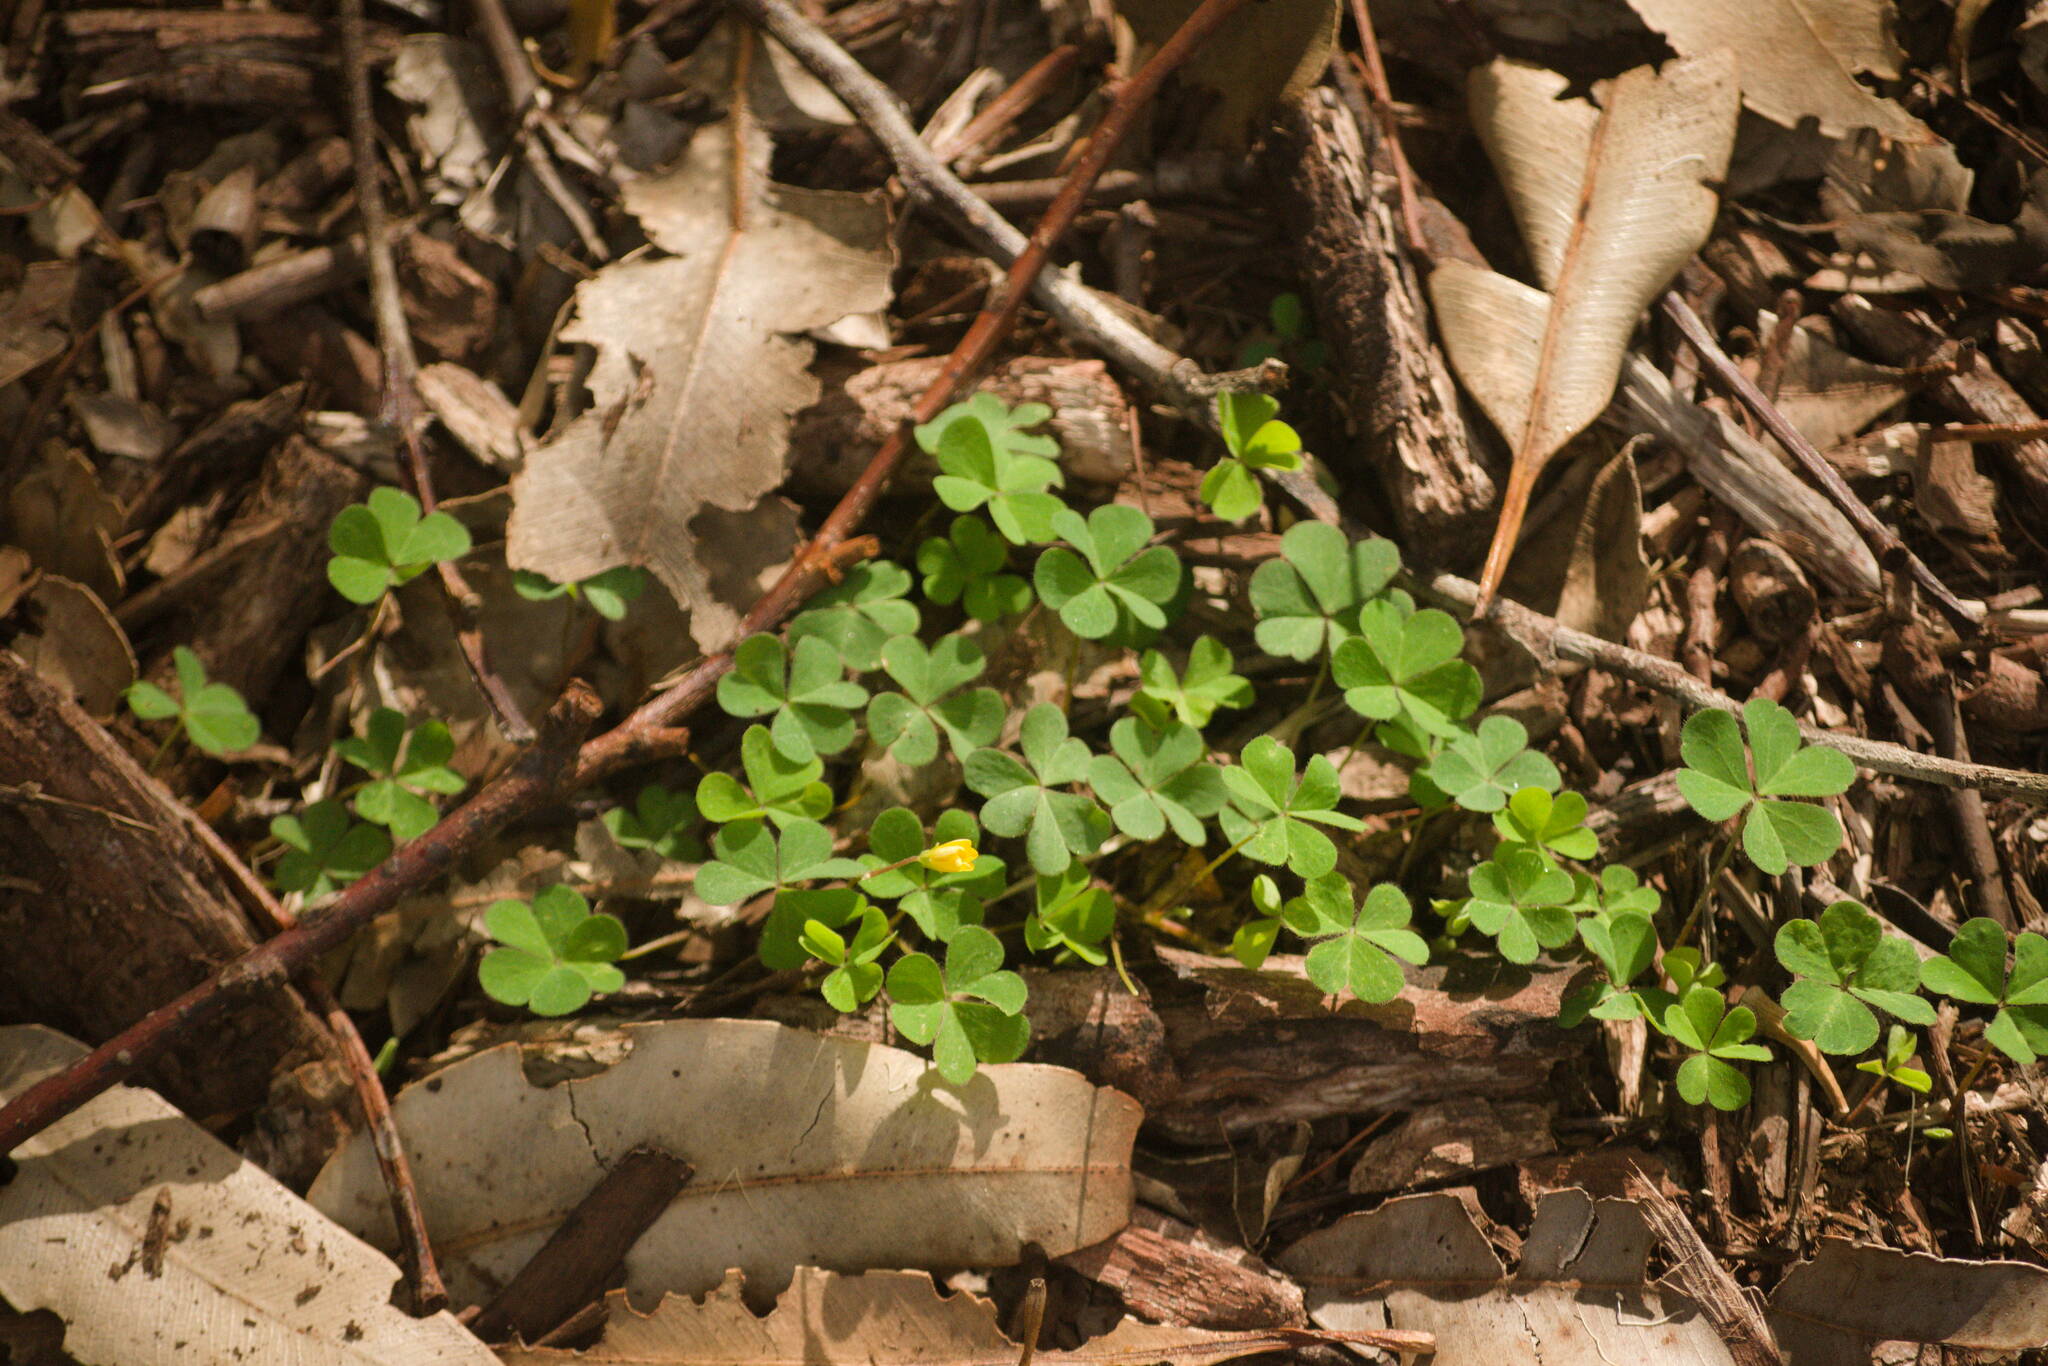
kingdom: Plantae
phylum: Tracheophyta
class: Magnoliopsida
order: Oxalidales
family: Oxalidaceae
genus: Oxalis
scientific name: Oxalis corniculata
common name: Procumbent yellow-sorrel
